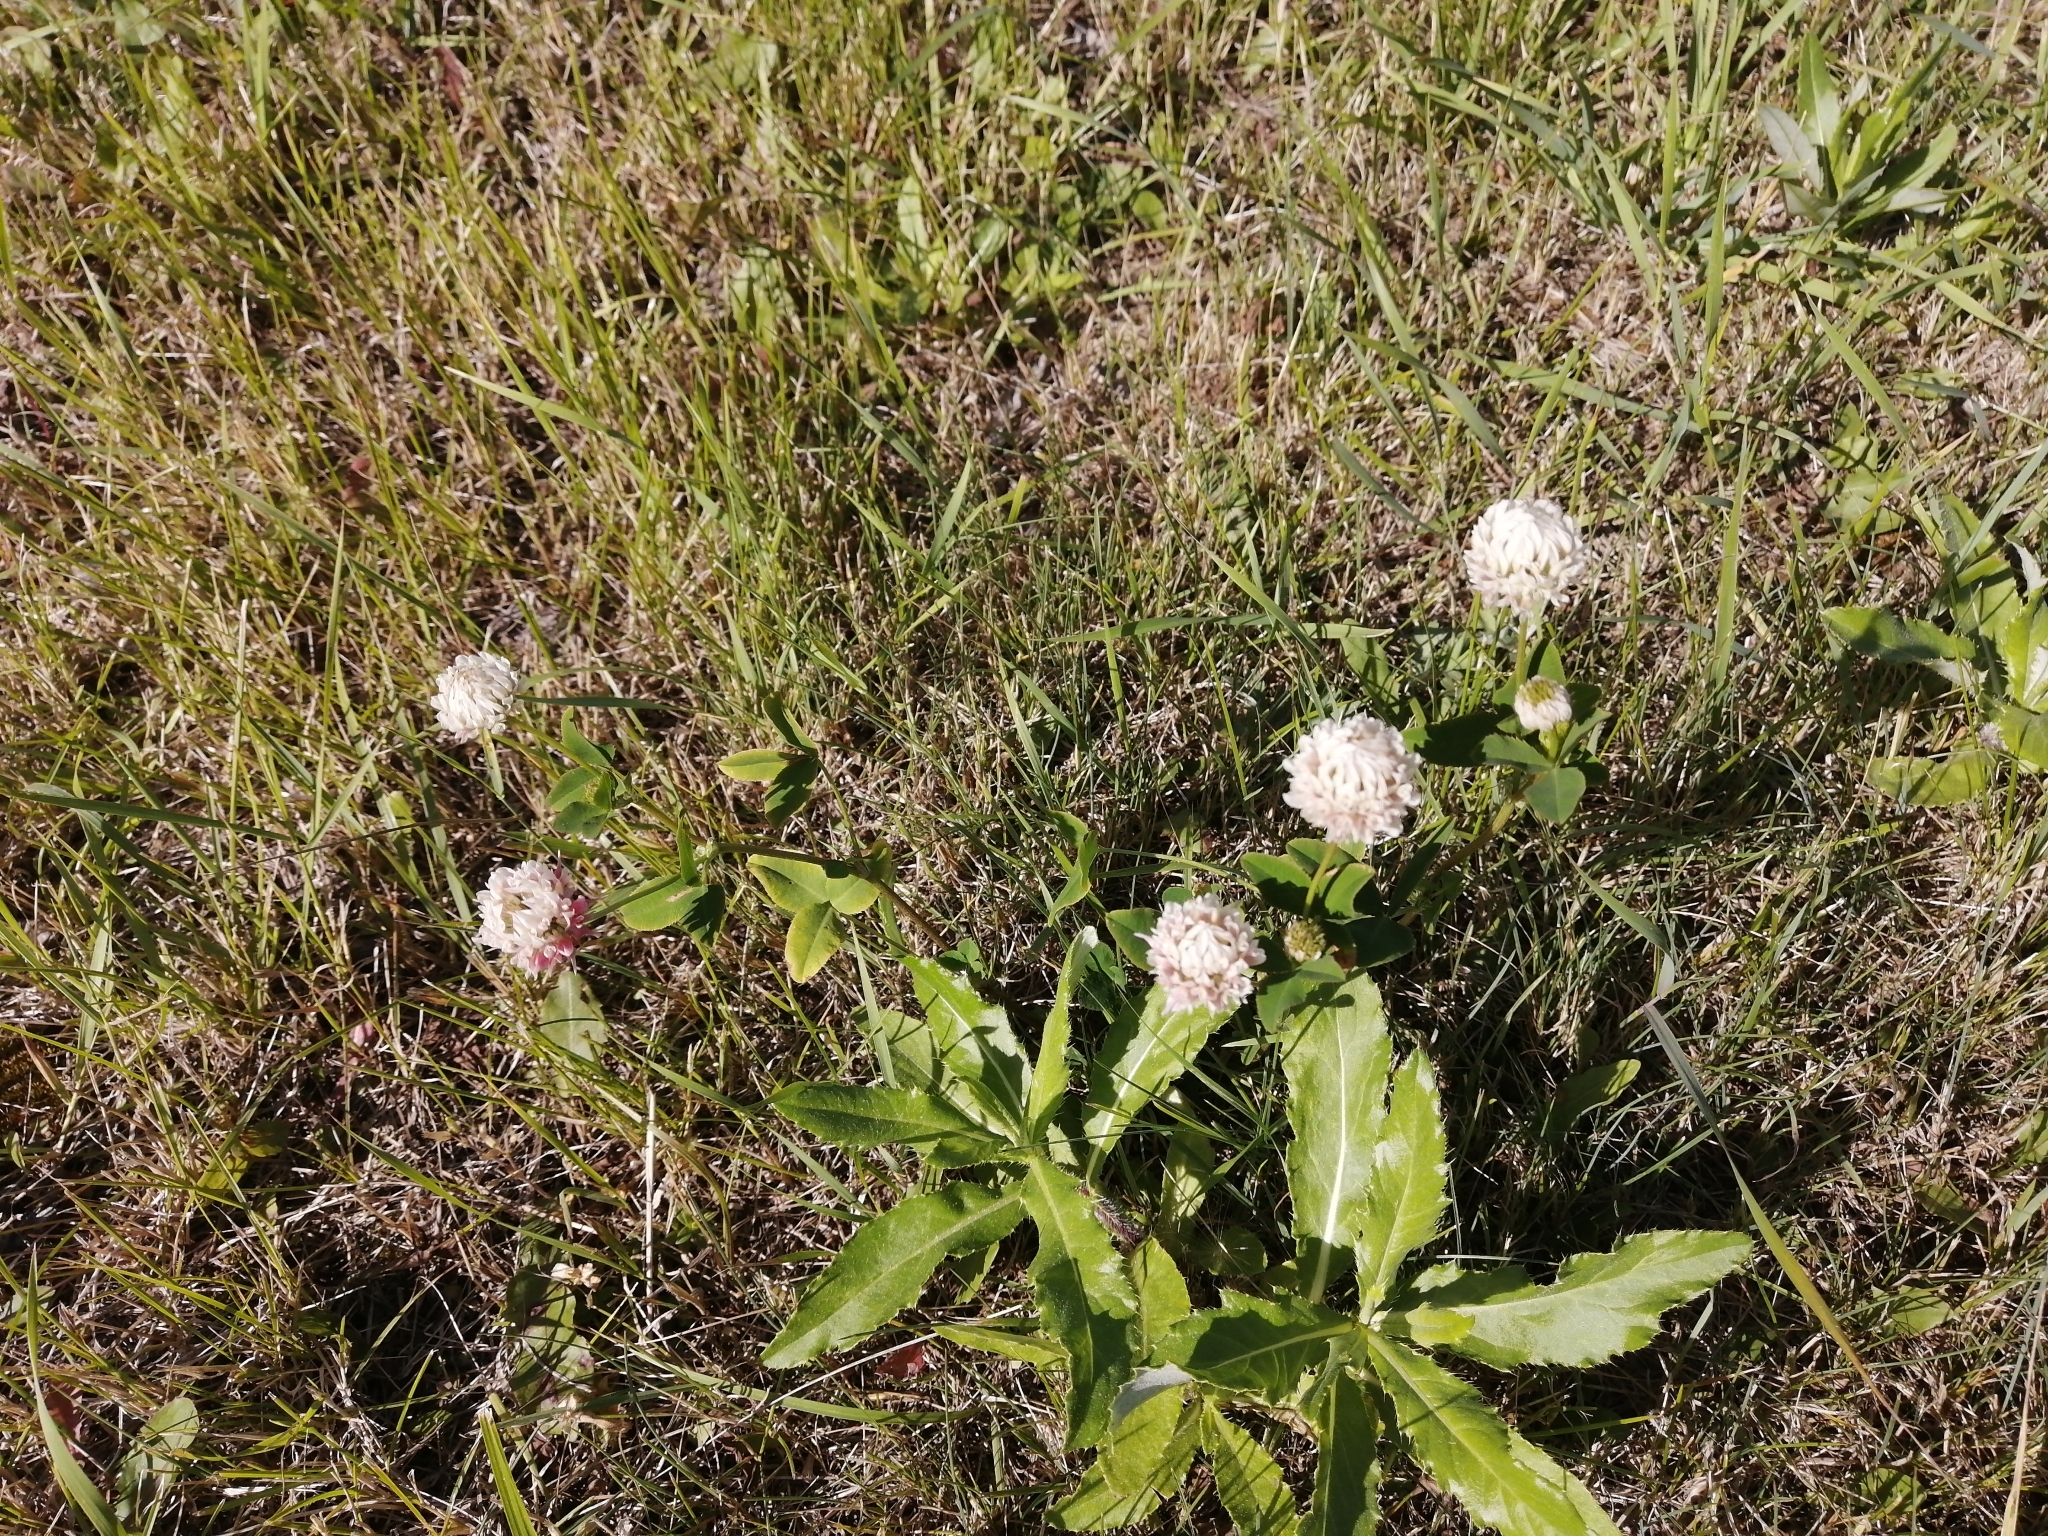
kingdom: Plantae
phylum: Tracheophyta
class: Magnoliopsida
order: Fabales
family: Fabaceae
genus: Trifolium
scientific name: Trifolium hybridum
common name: Alsike clover
